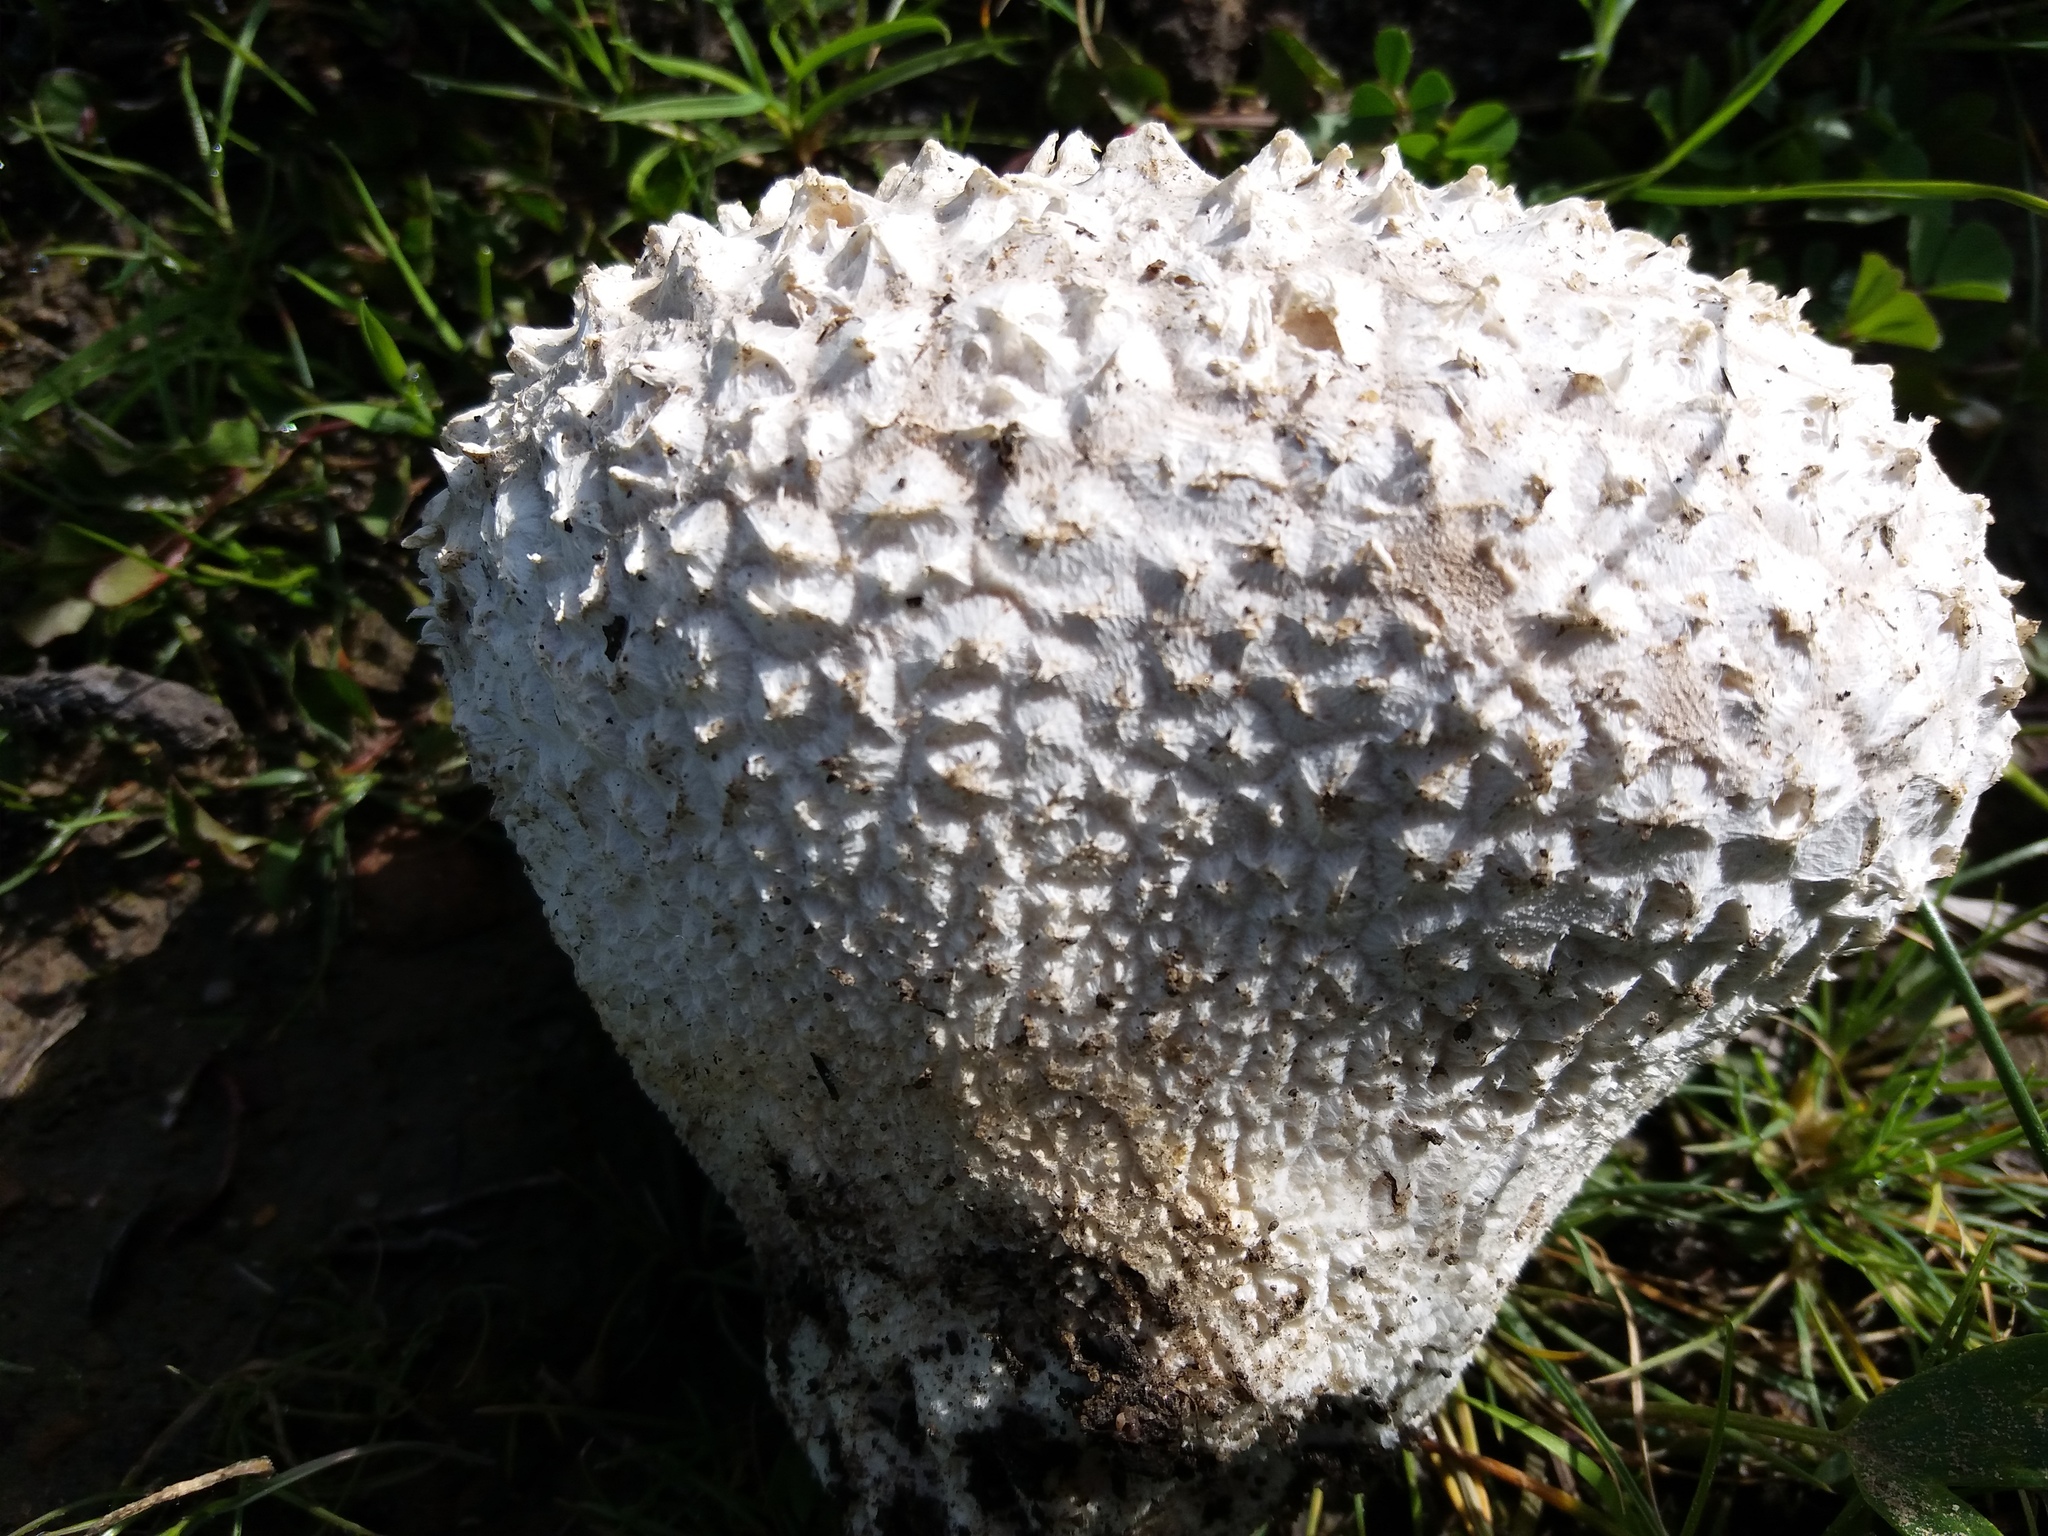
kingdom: Fungi
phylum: Basidiomycota
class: Agaricomycetes
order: Agaricales
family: Lycoperdaceae
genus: Bovistella
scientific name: Bovistella utriformis
